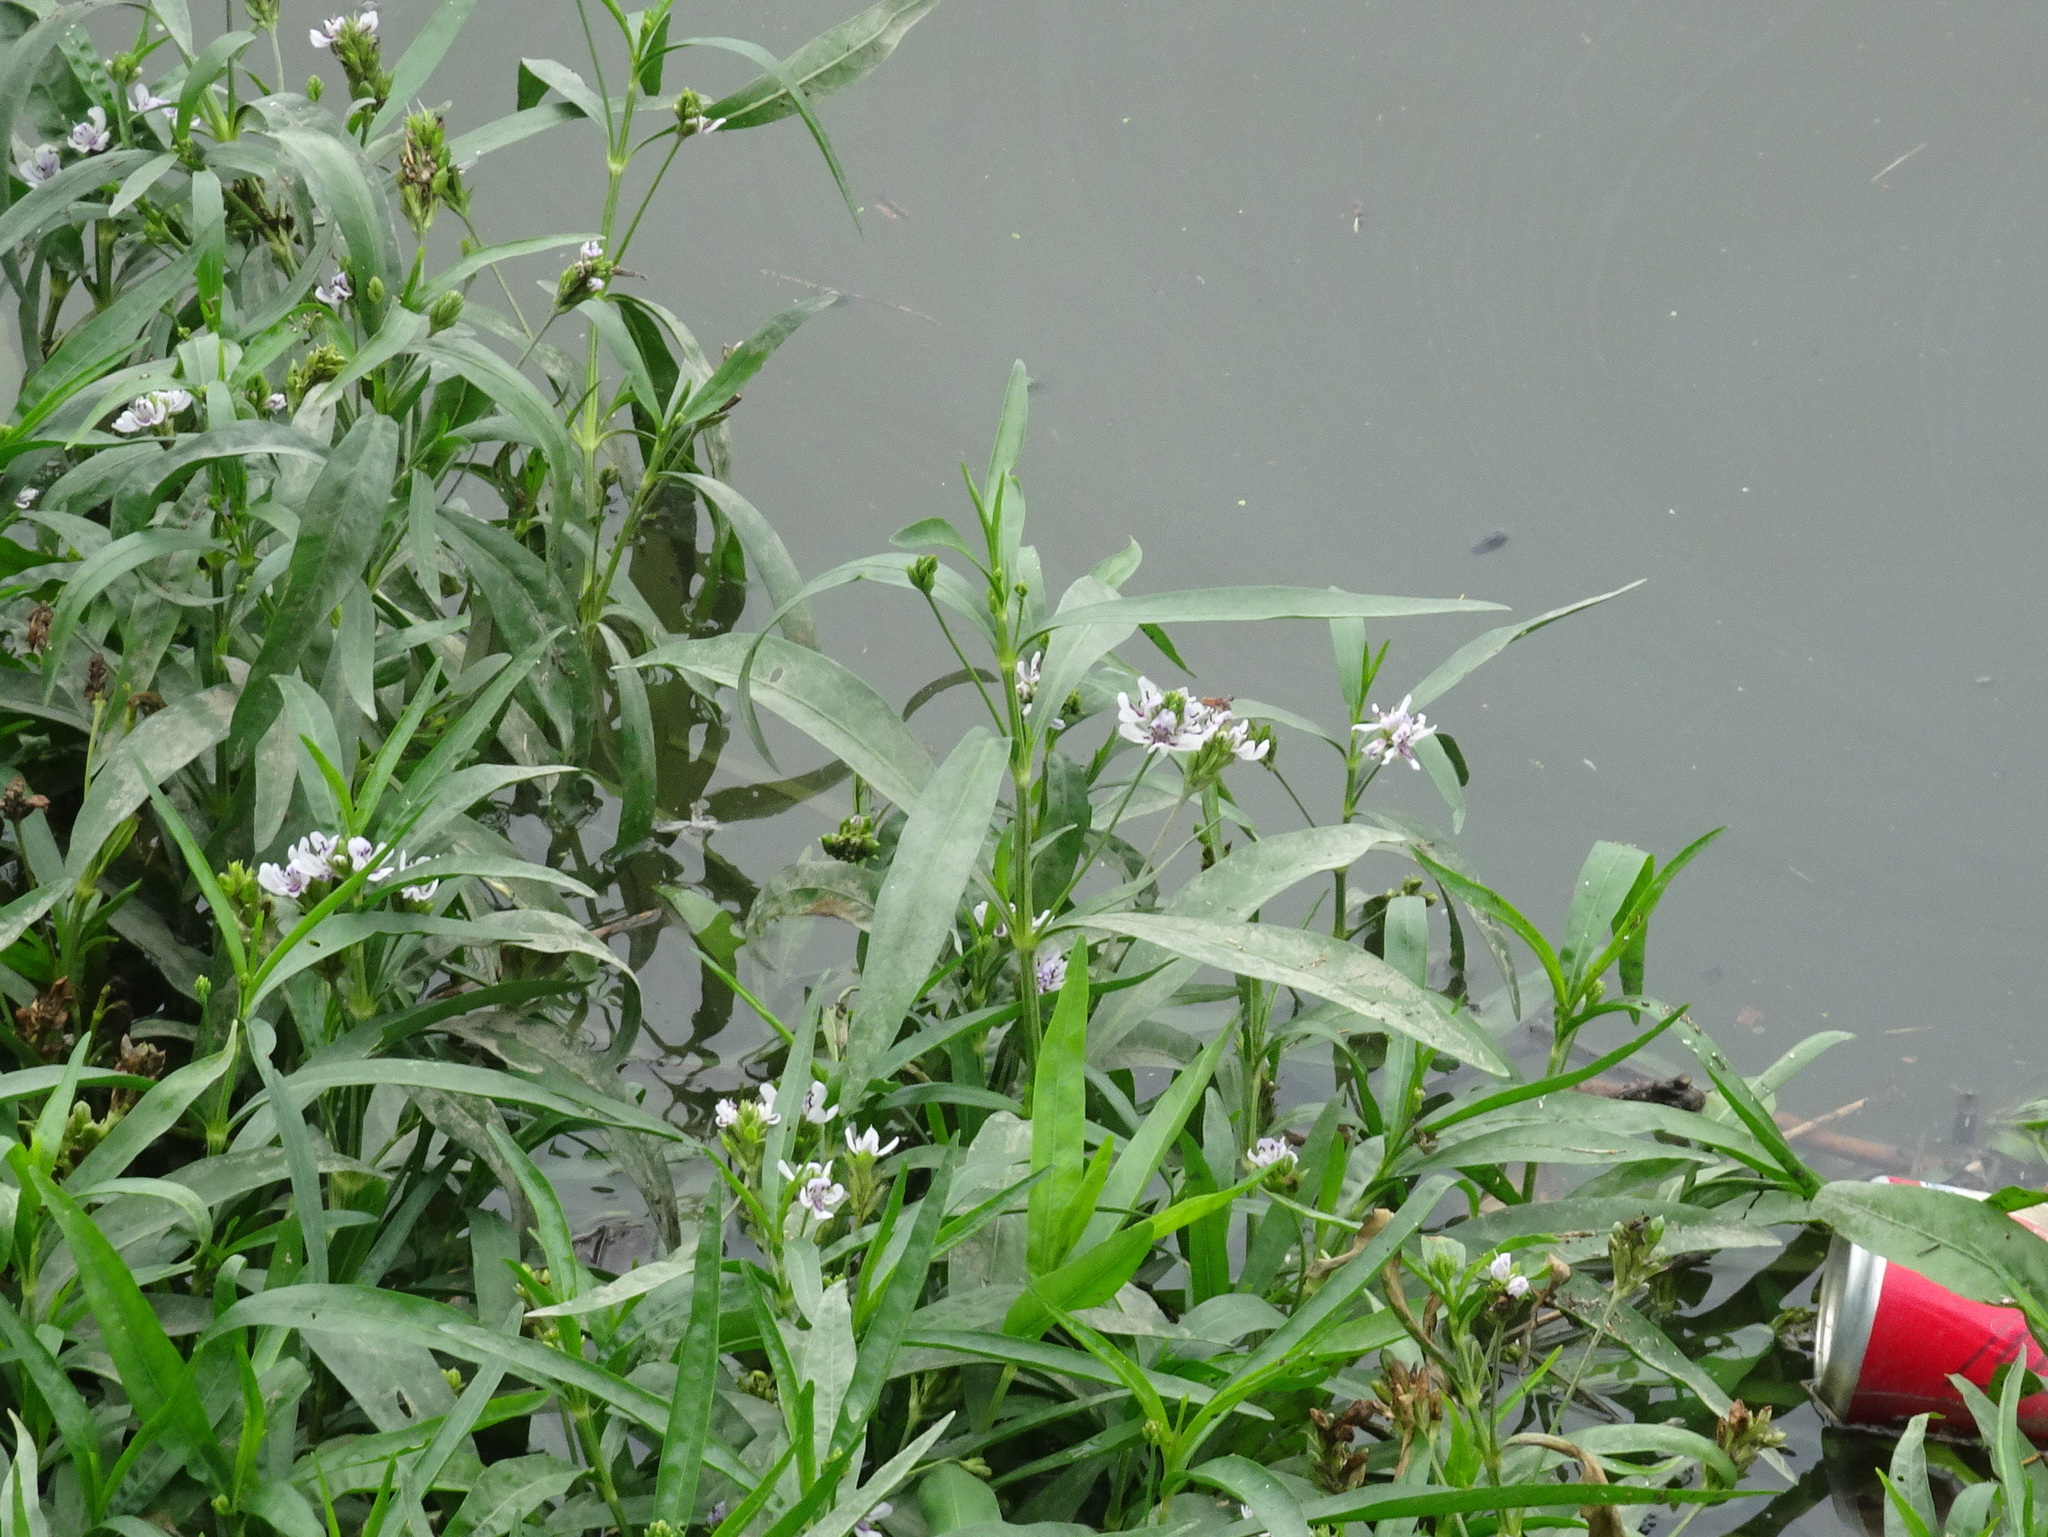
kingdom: Plantae
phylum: Tracheophyta
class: Magnoliopsida
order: Lamiales
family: Acanthaceae
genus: Dianthera
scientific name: Dianthera americana
